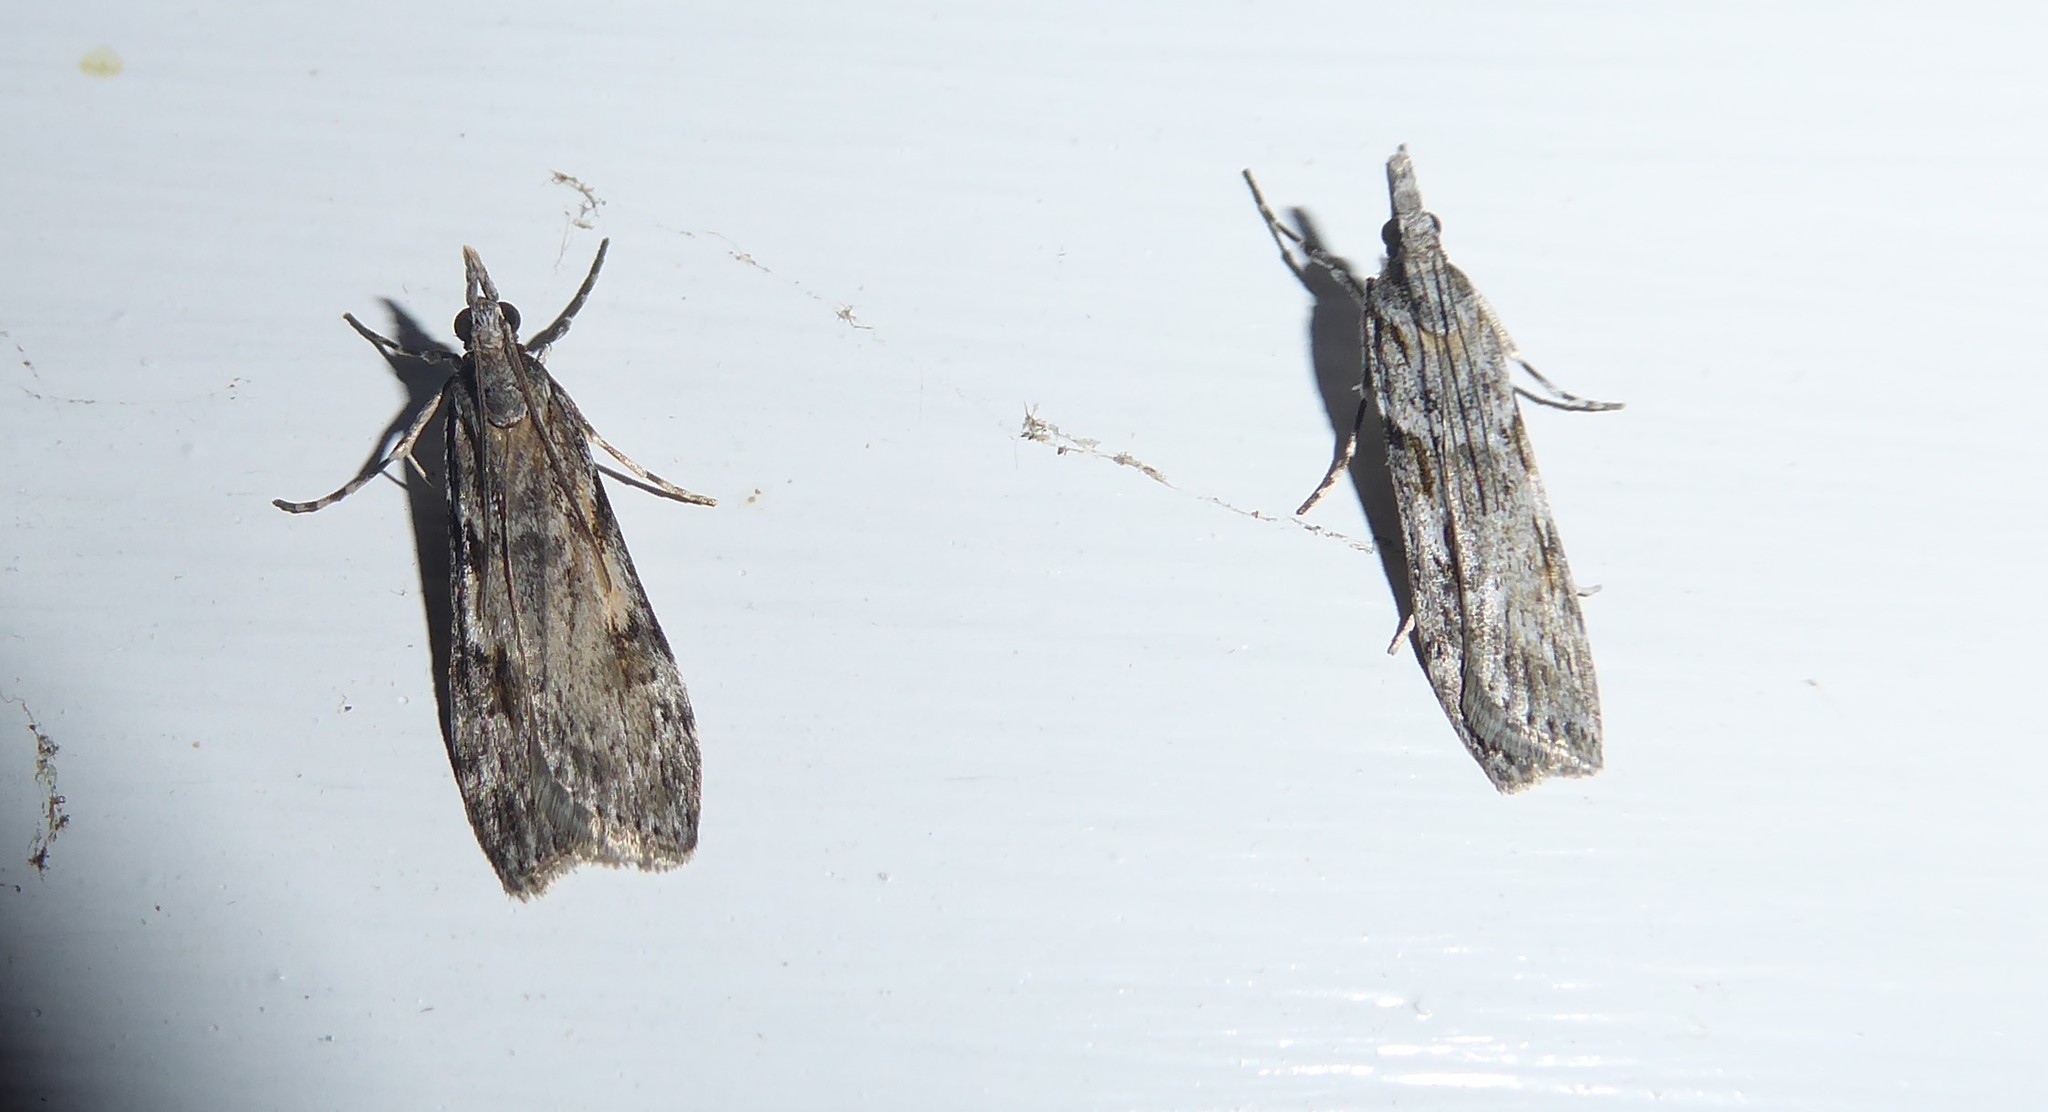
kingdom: Animalia
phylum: Arthropoda
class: Insecta
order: Lepidoptera
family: Crambidae
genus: Scoparia
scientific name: Scoparia halopis
